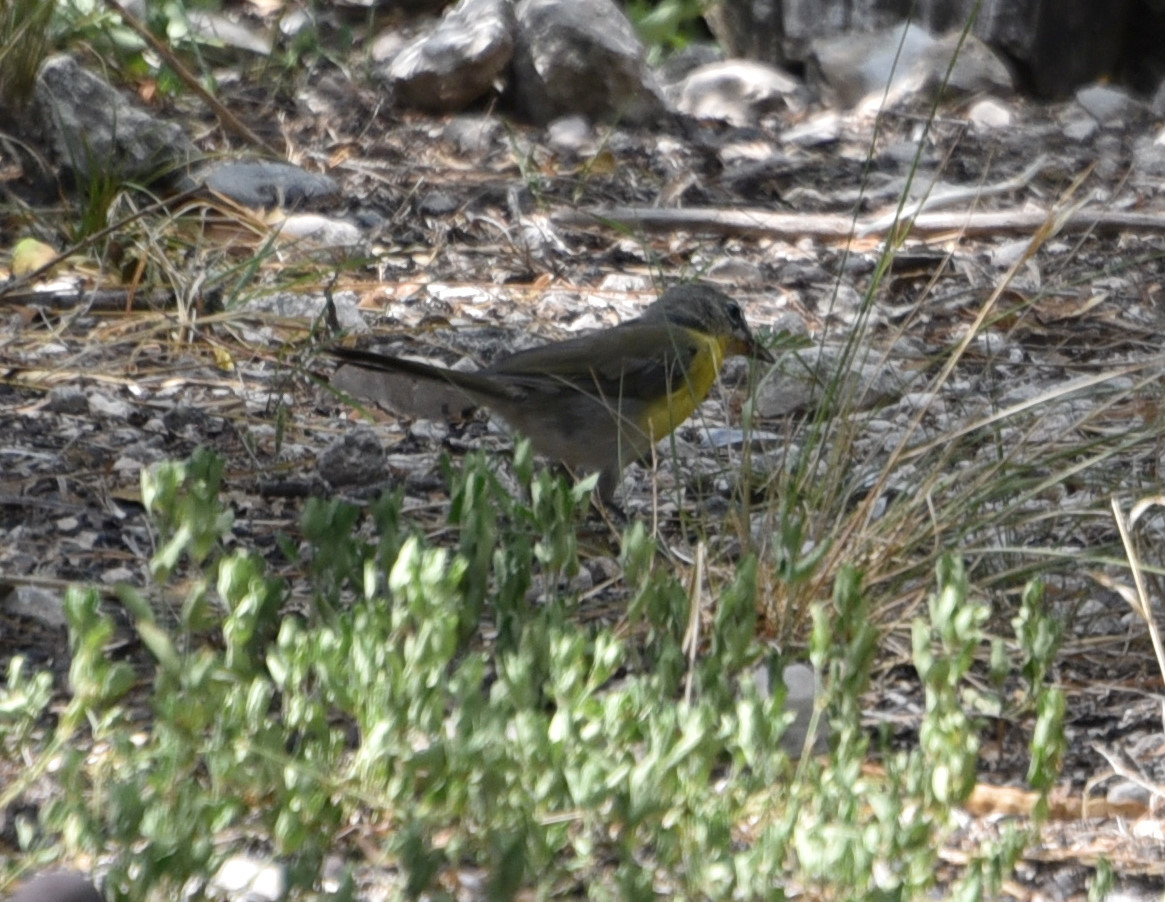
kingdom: Animalia
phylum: Chordata
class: Aves
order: Passeriformes
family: Parulidae
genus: Icteria
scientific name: Icteria virens
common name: Yellow-breasted chat
